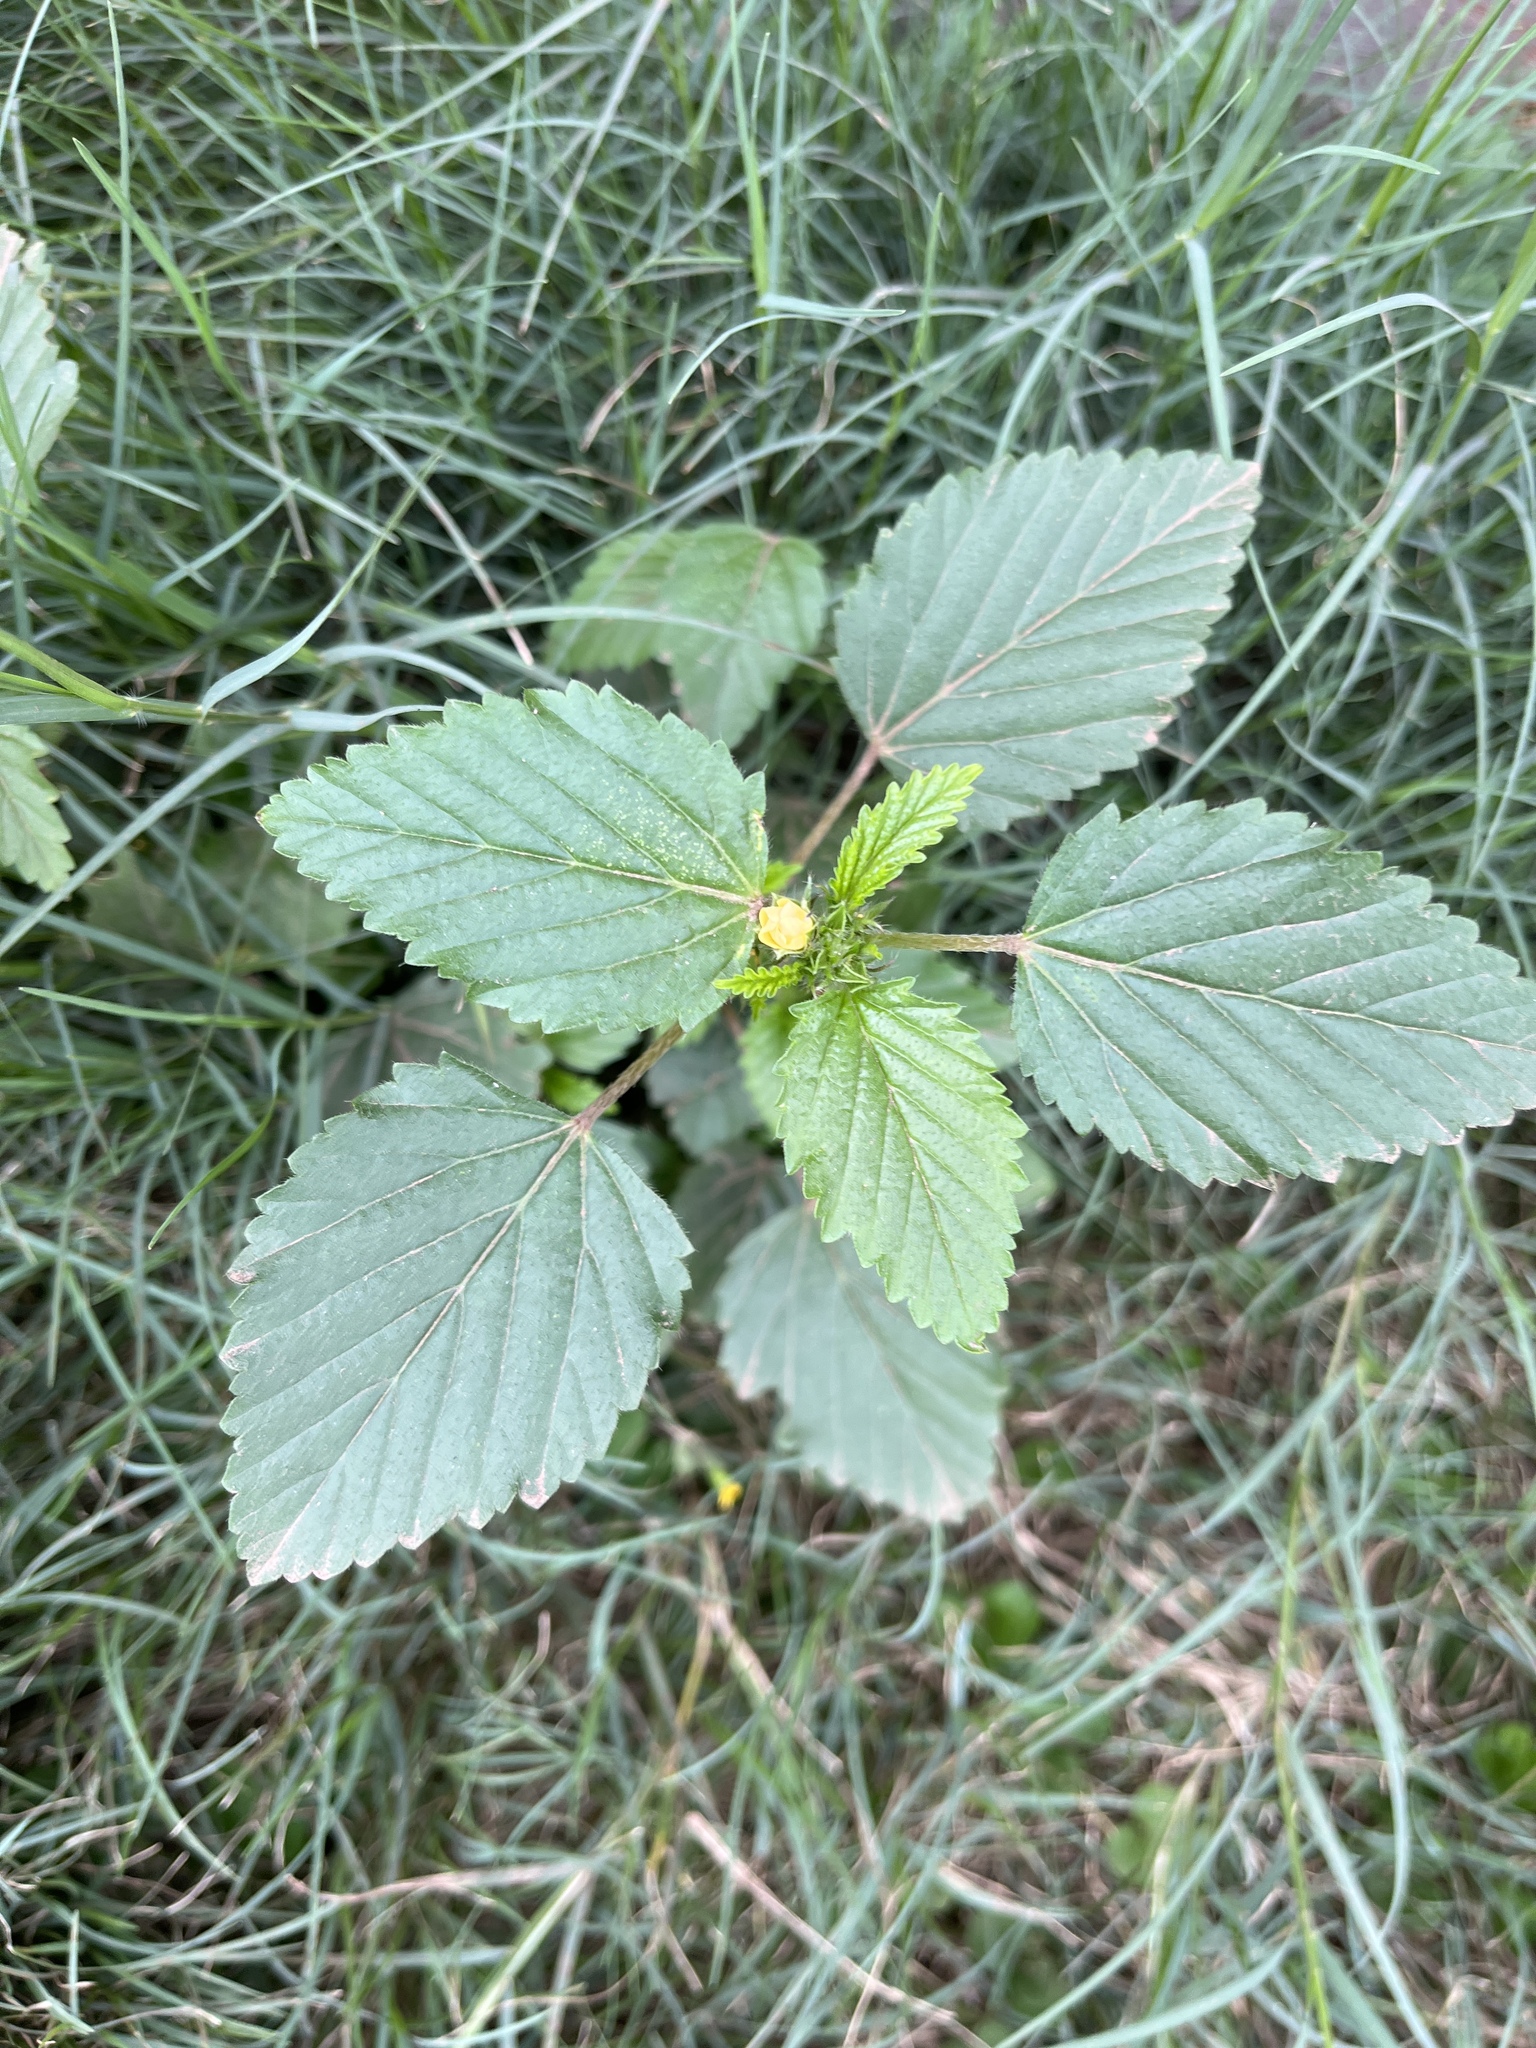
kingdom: Plantae
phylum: Tracheophyta
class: Magnoliopsida
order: Malvales
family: Malvaceae
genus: Malvastrum
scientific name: Malvastrum coromandelianum
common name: Threelobe false mallow
